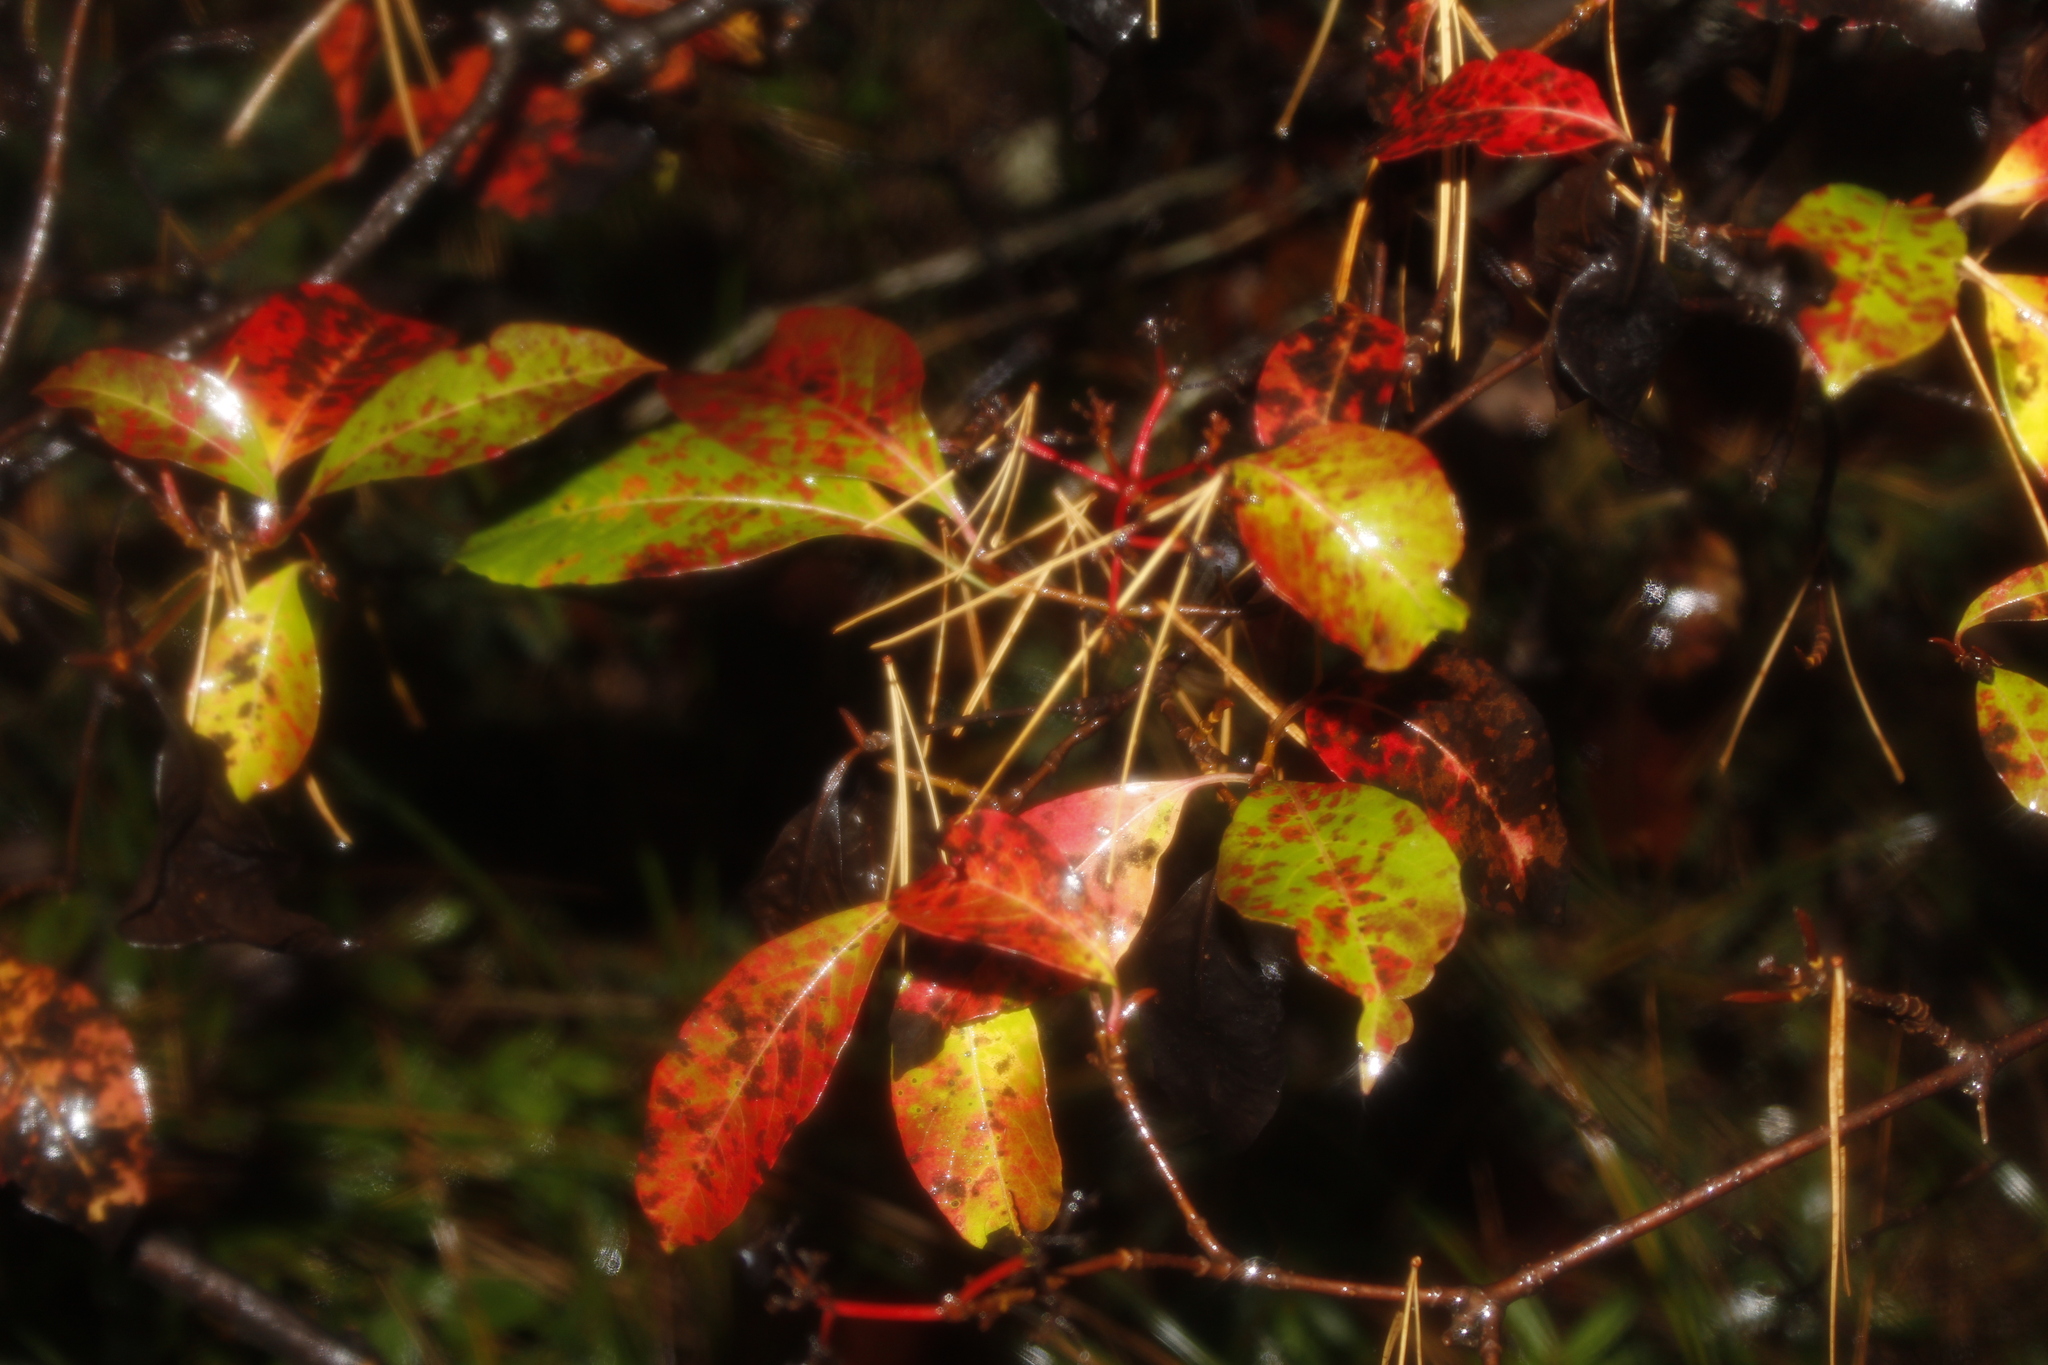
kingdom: Plantae
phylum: Tracheophyta
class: Magnoliopsida
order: Dipsacales
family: Viburnaceae
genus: Viburnum
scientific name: Viburnum cassinoides
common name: Swamp haw
